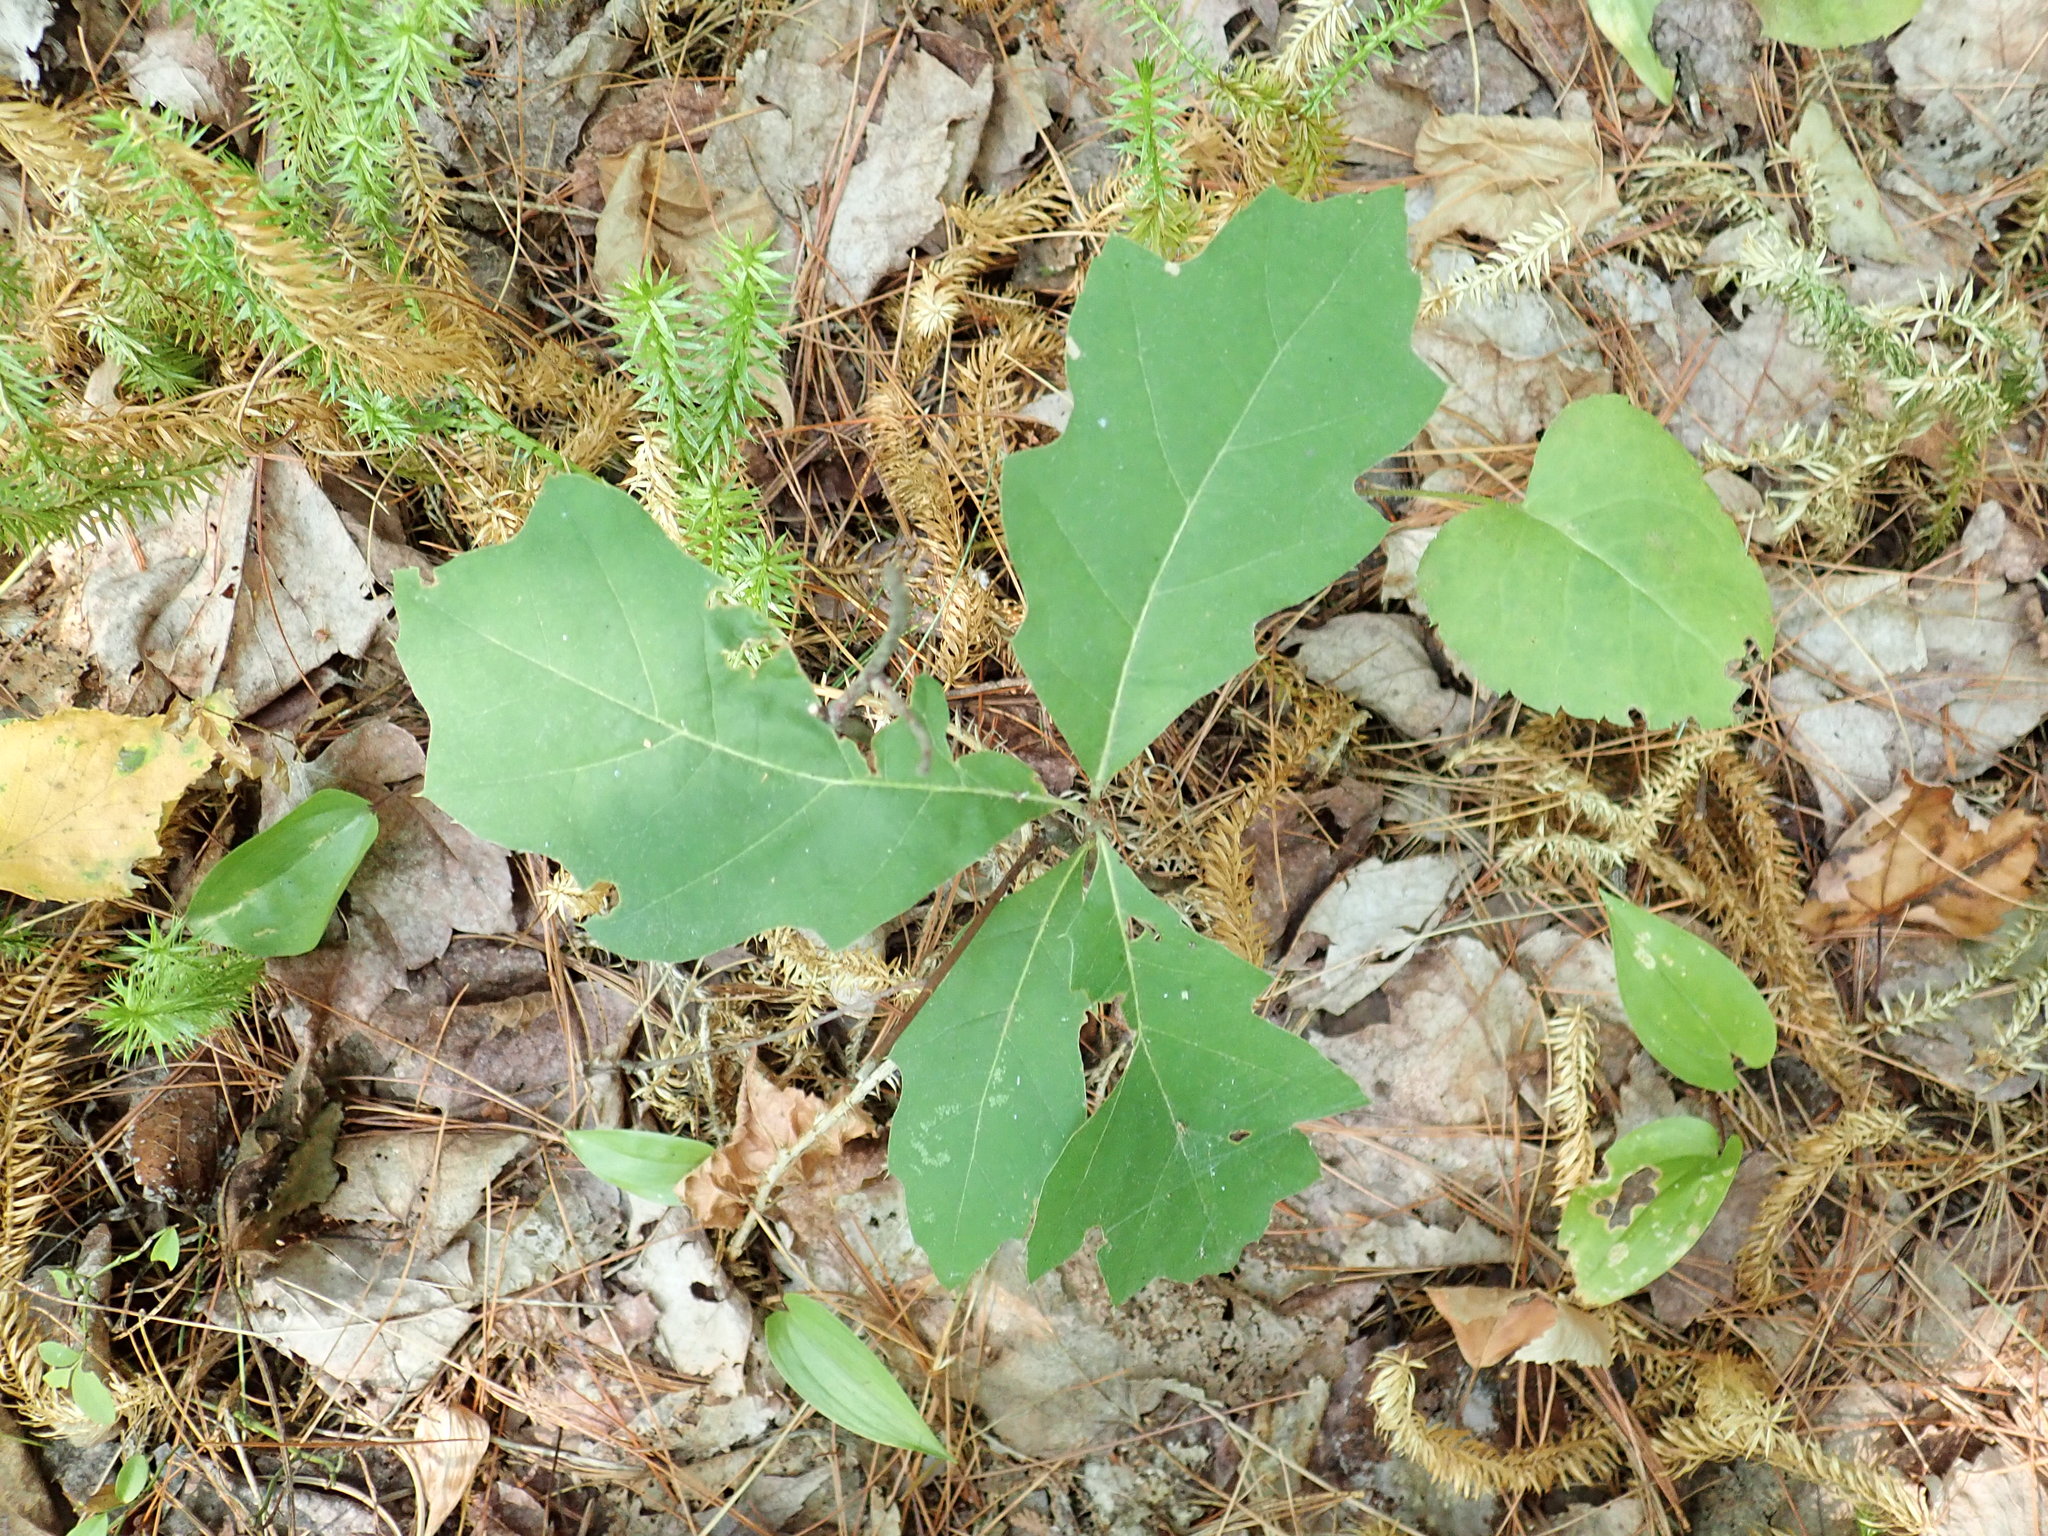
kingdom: Plantae
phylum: Tracheophyta
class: Magnoliopsida
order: Fagales
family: Fagaceae
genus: Quercus
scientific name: Quercus ellipsoidalis
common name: Hill's oak
